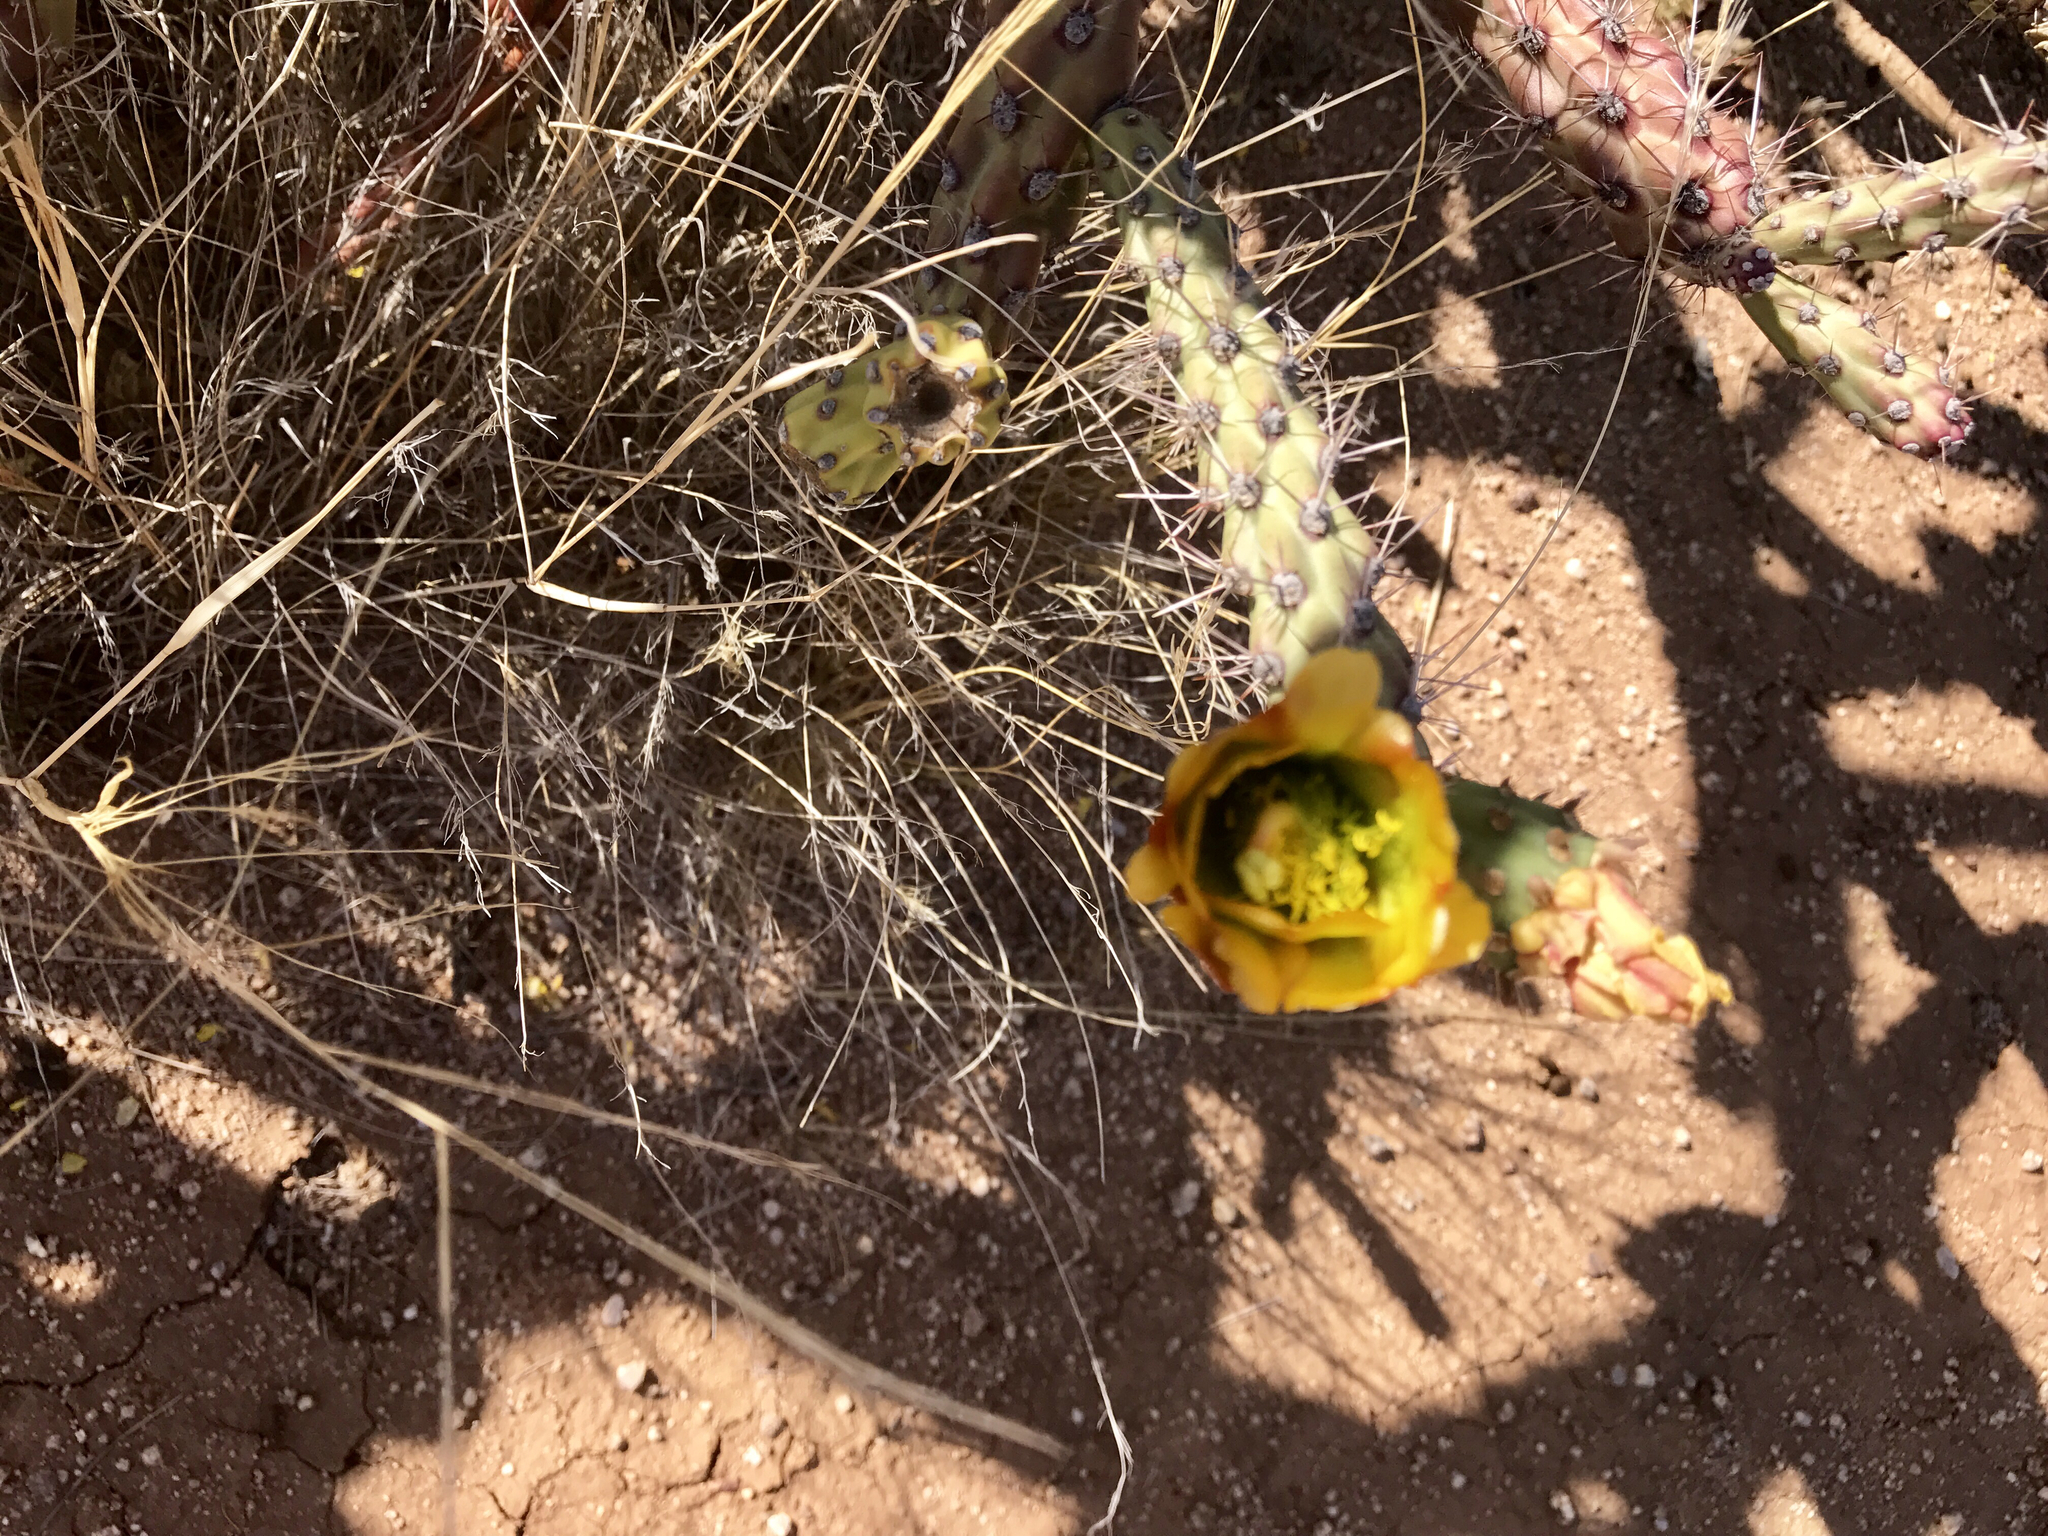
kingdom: Plantae
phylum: Tracheophyta
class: Magnoliopsida
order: Caryophyllales
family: Cactaceae
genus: Cylindropuntia
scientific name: Cylindropuntia thurberi
